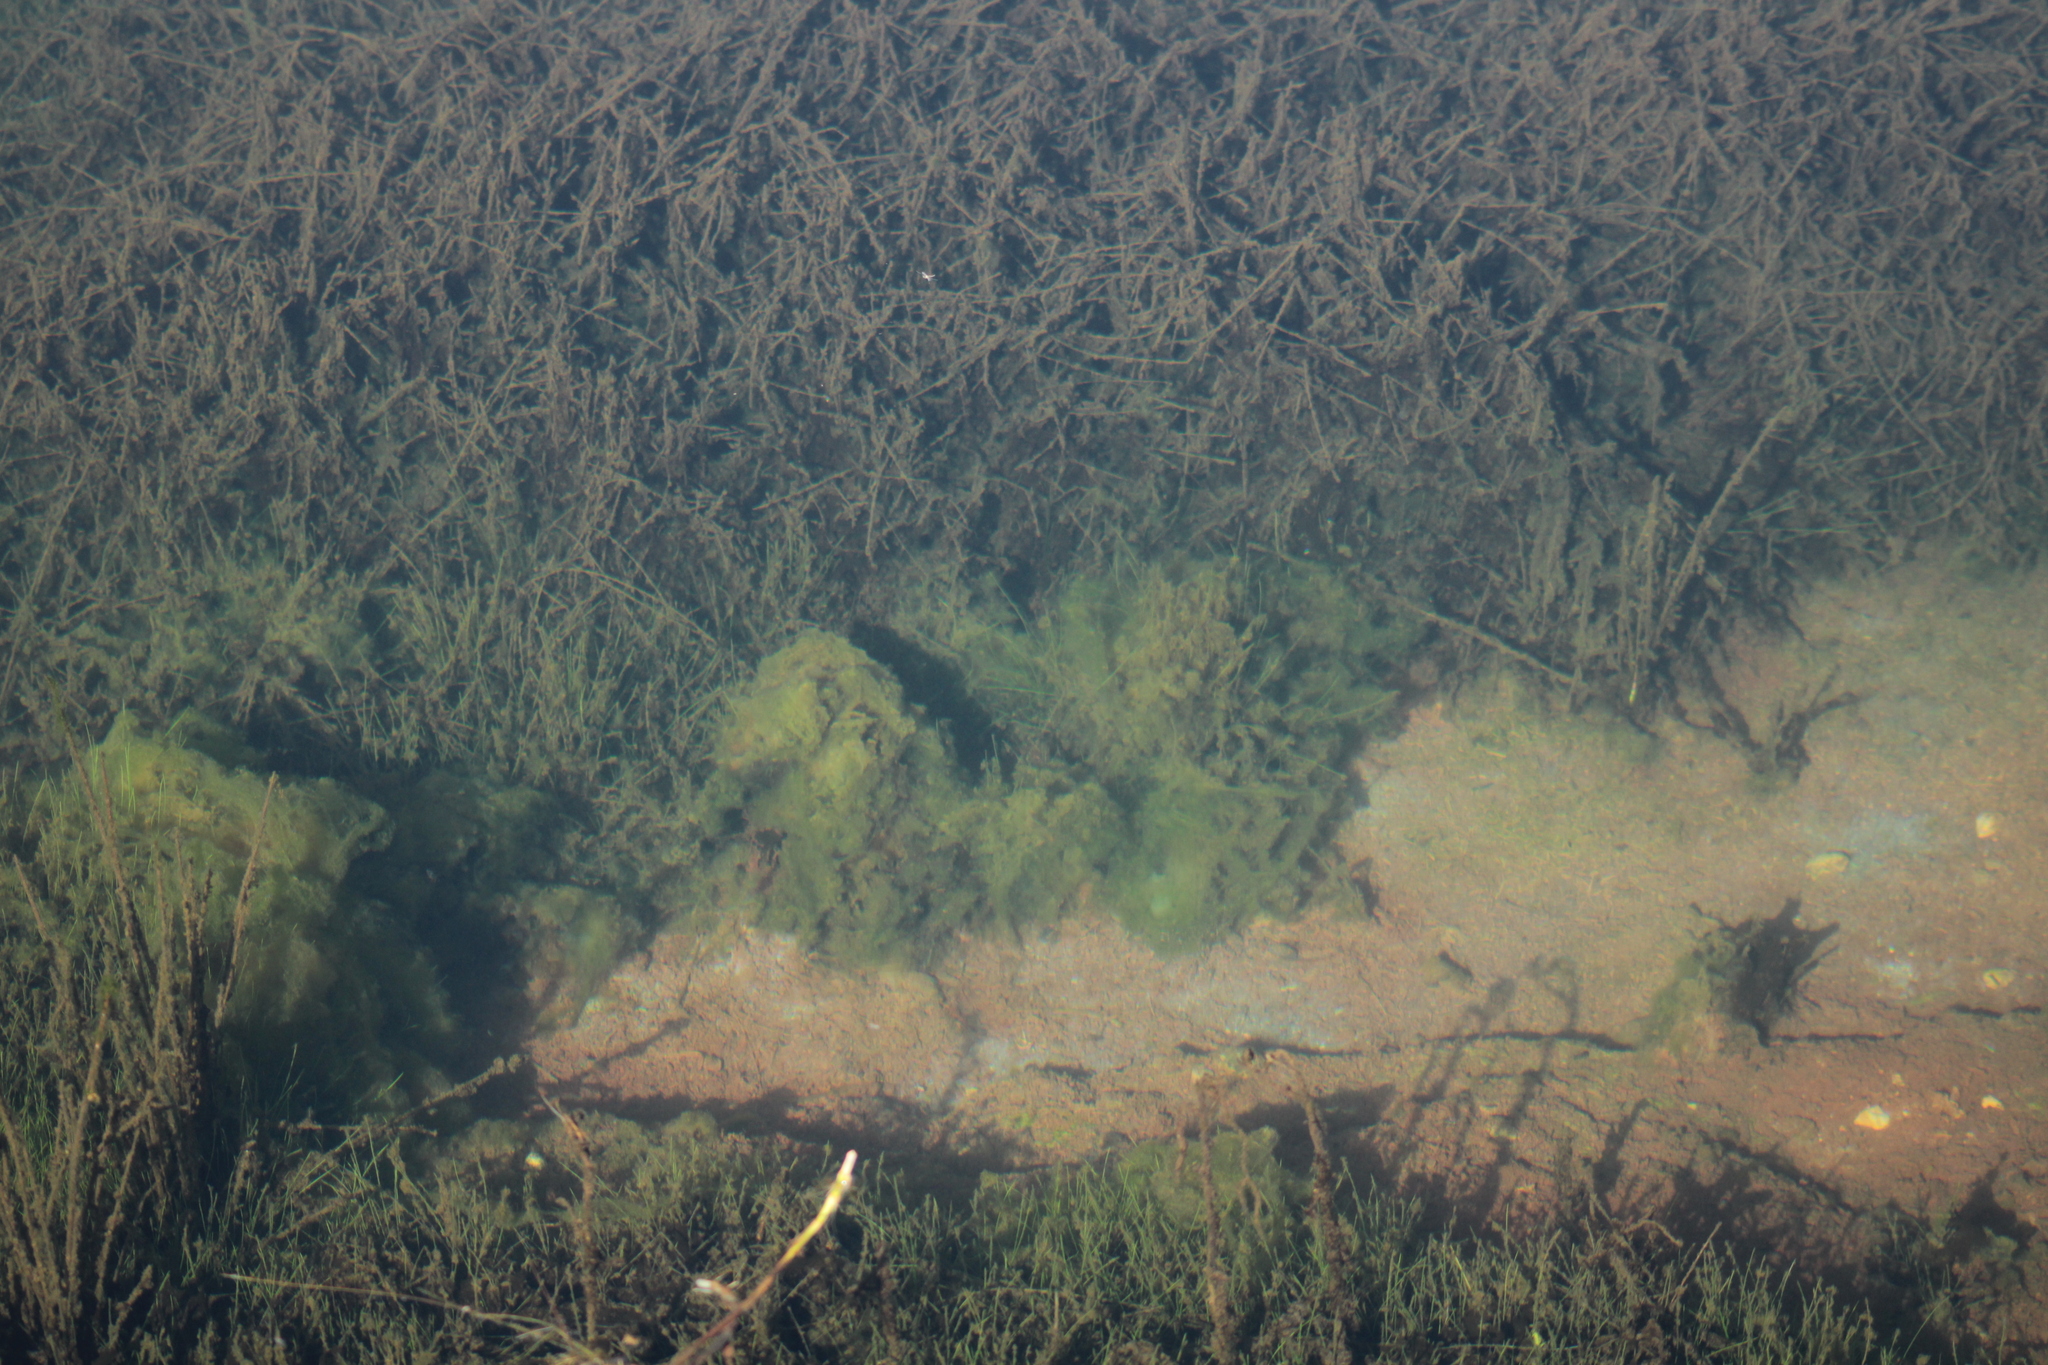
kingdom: Animalia
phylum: Porifera
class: Demospongiae
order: Spongillida
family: Spongillidae
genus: Spongilla
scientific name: Spongilla lacustris
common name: Common freshwater sponge
